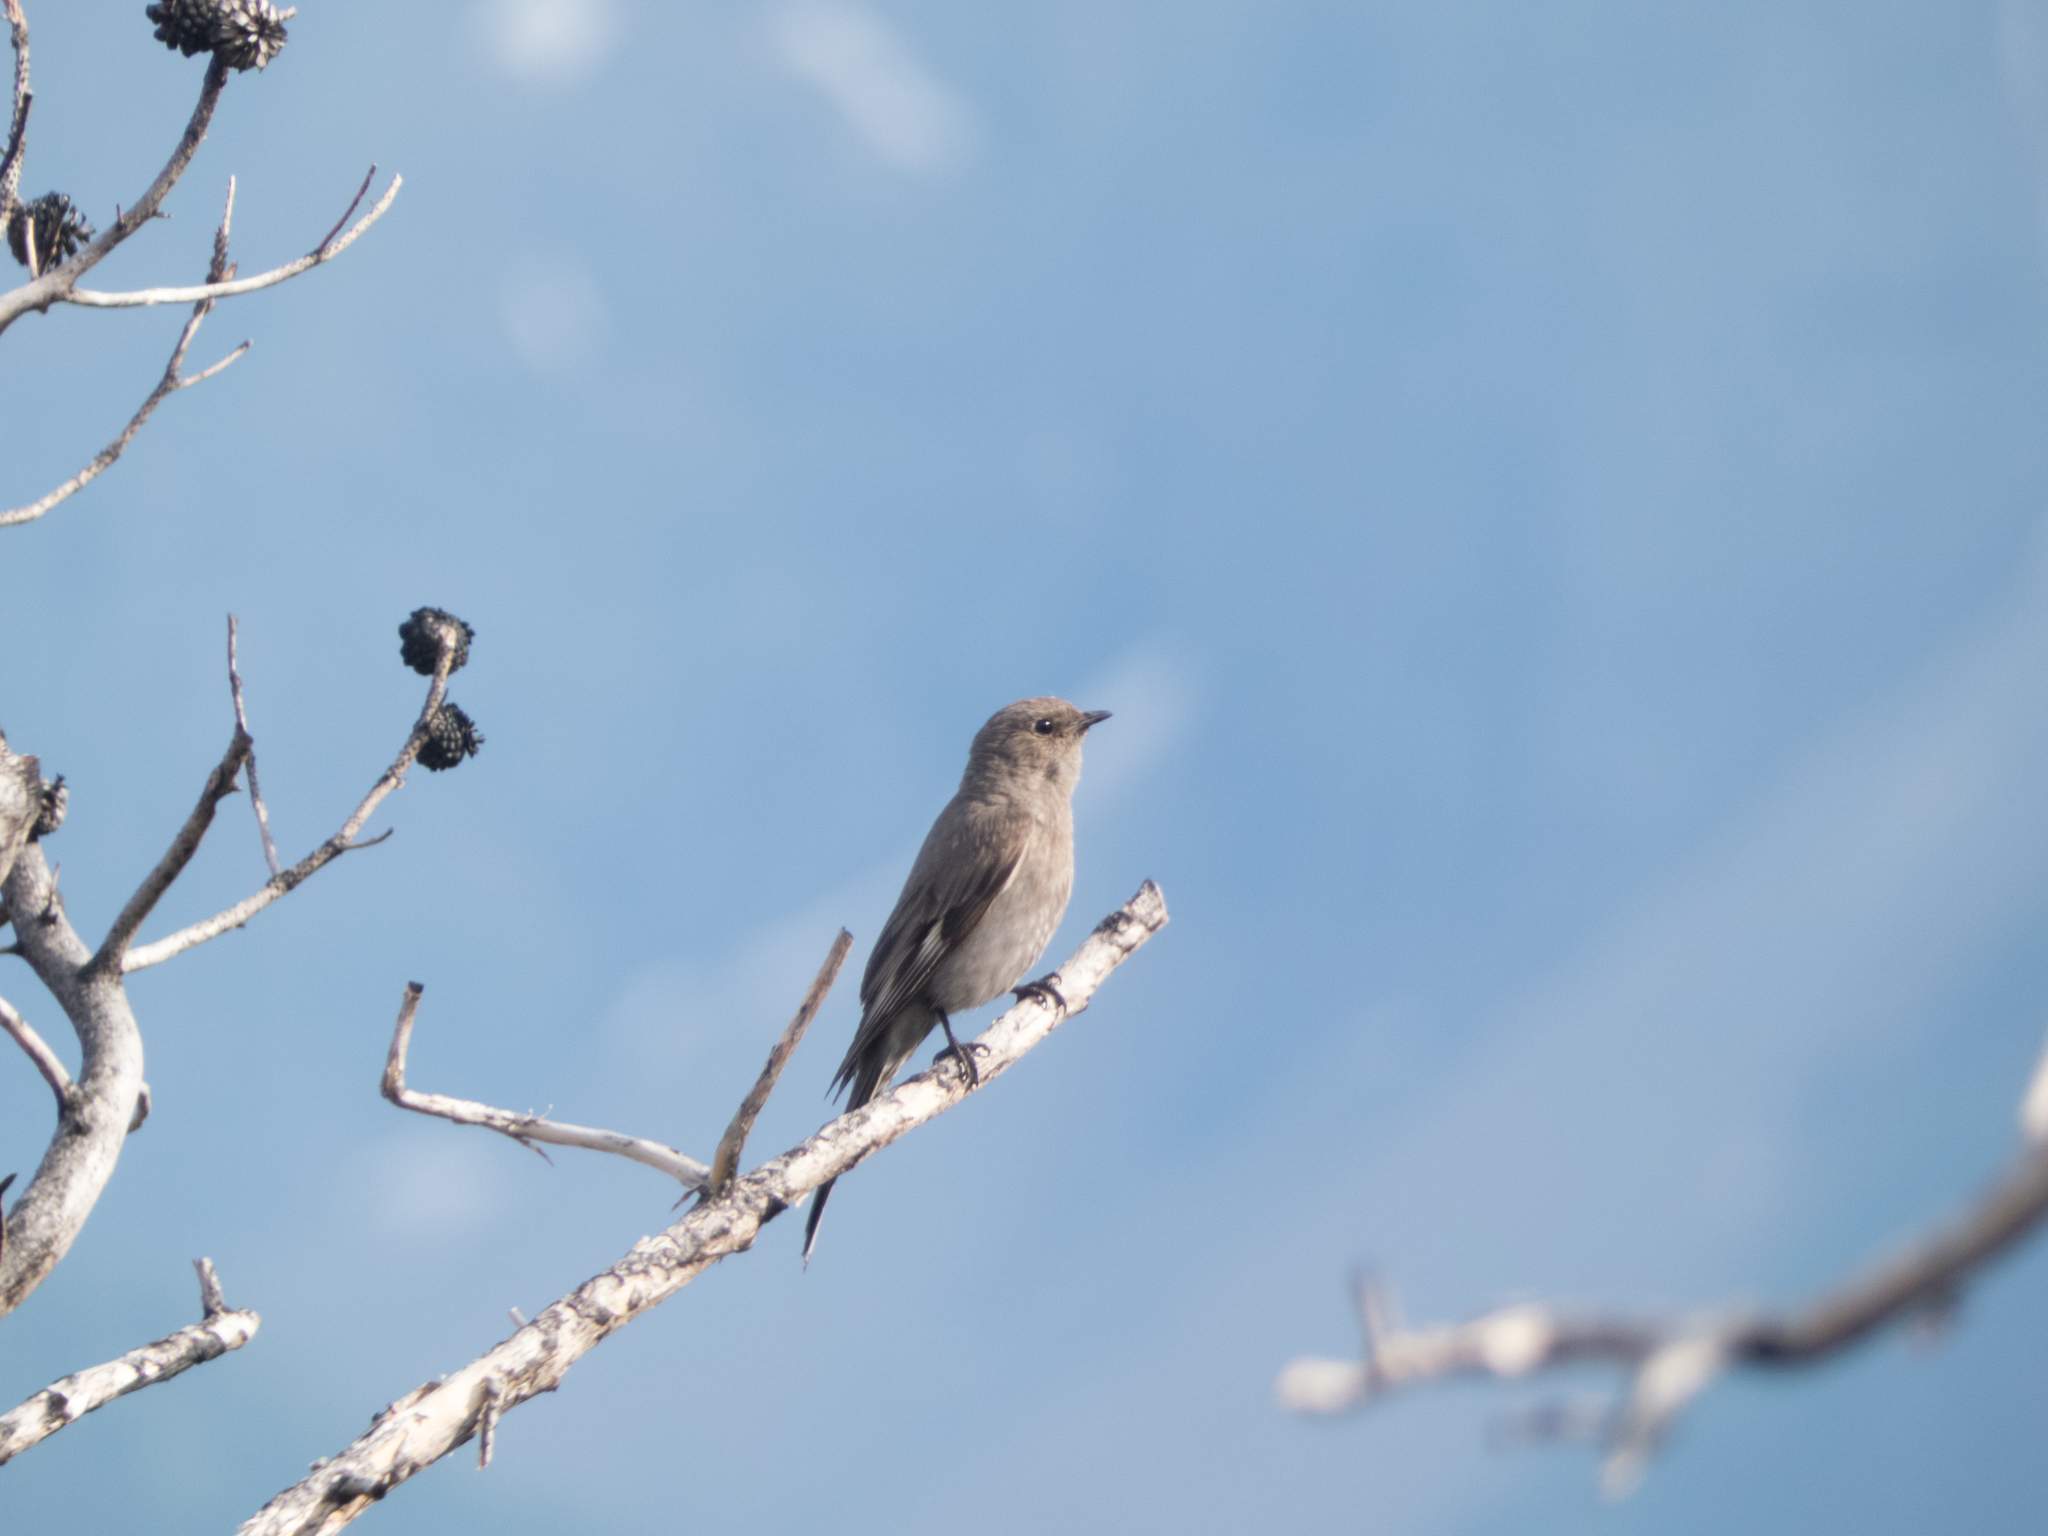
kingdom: Animalia
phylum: Chordata
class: Aves
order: Passeriformes
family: Turdidae
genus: Myadestes
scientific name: Myadestes townsendi
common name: Townsend's solitaire
